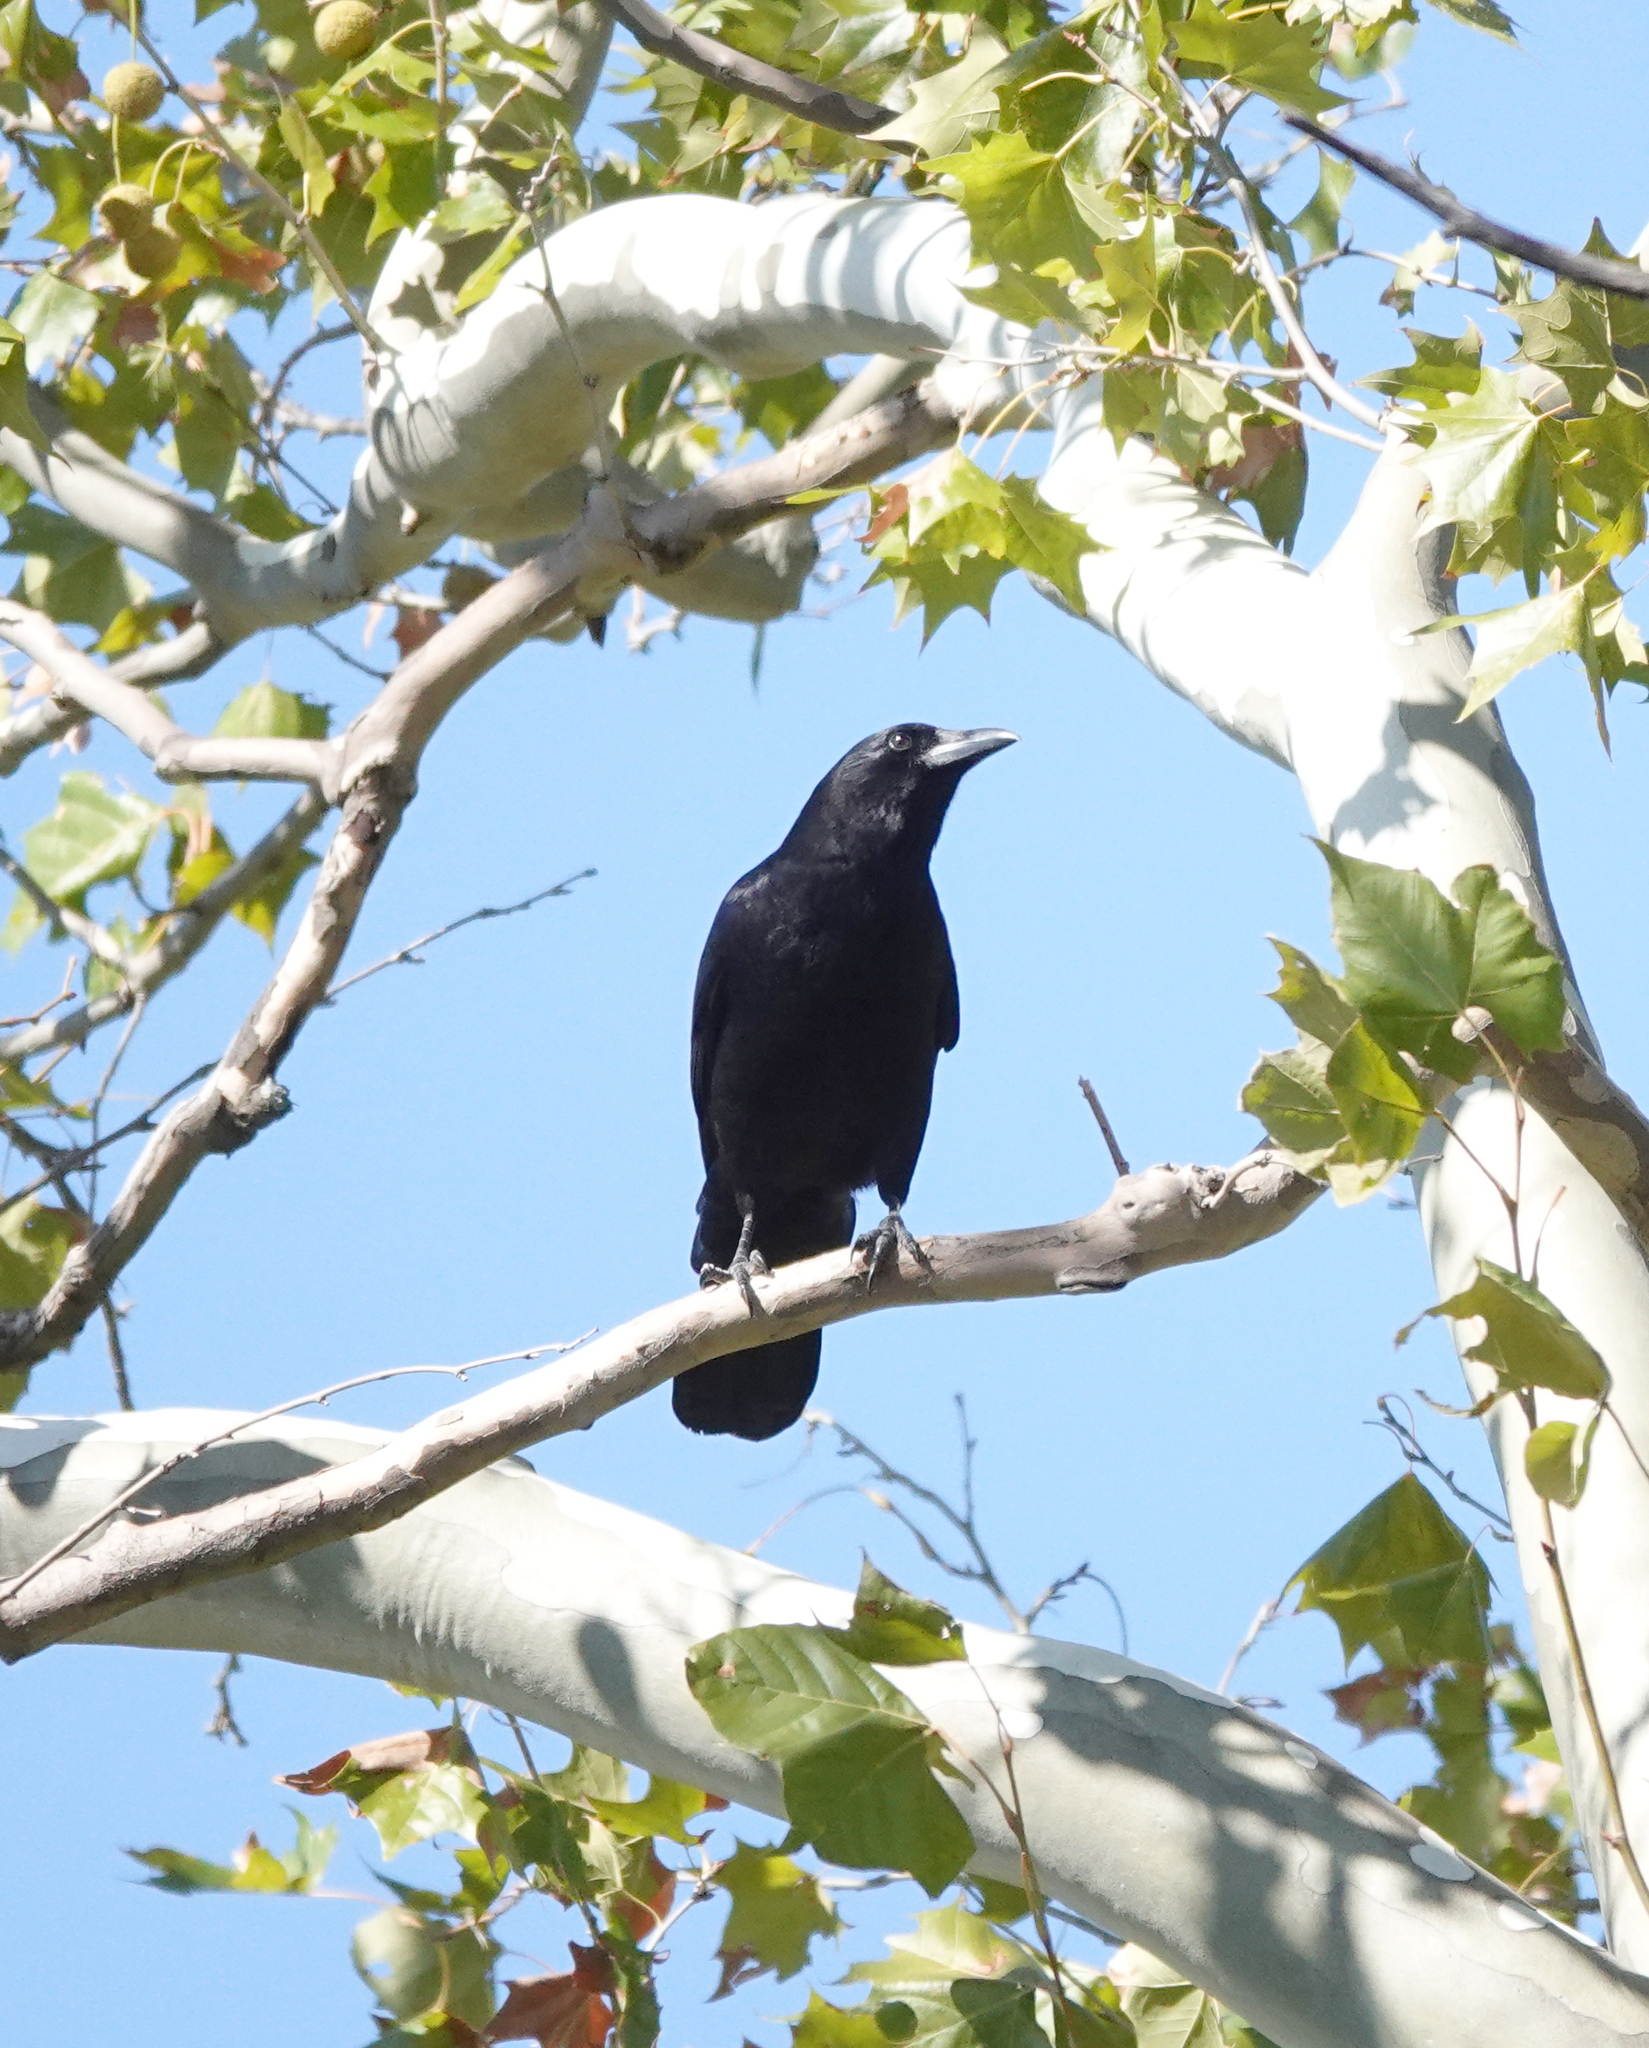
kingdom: Animalia
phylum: Chordata
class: Aves
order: Passeriformes
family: Corvidae
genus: Corvus
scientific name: Corvus brachyrhynchos
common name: American crow
